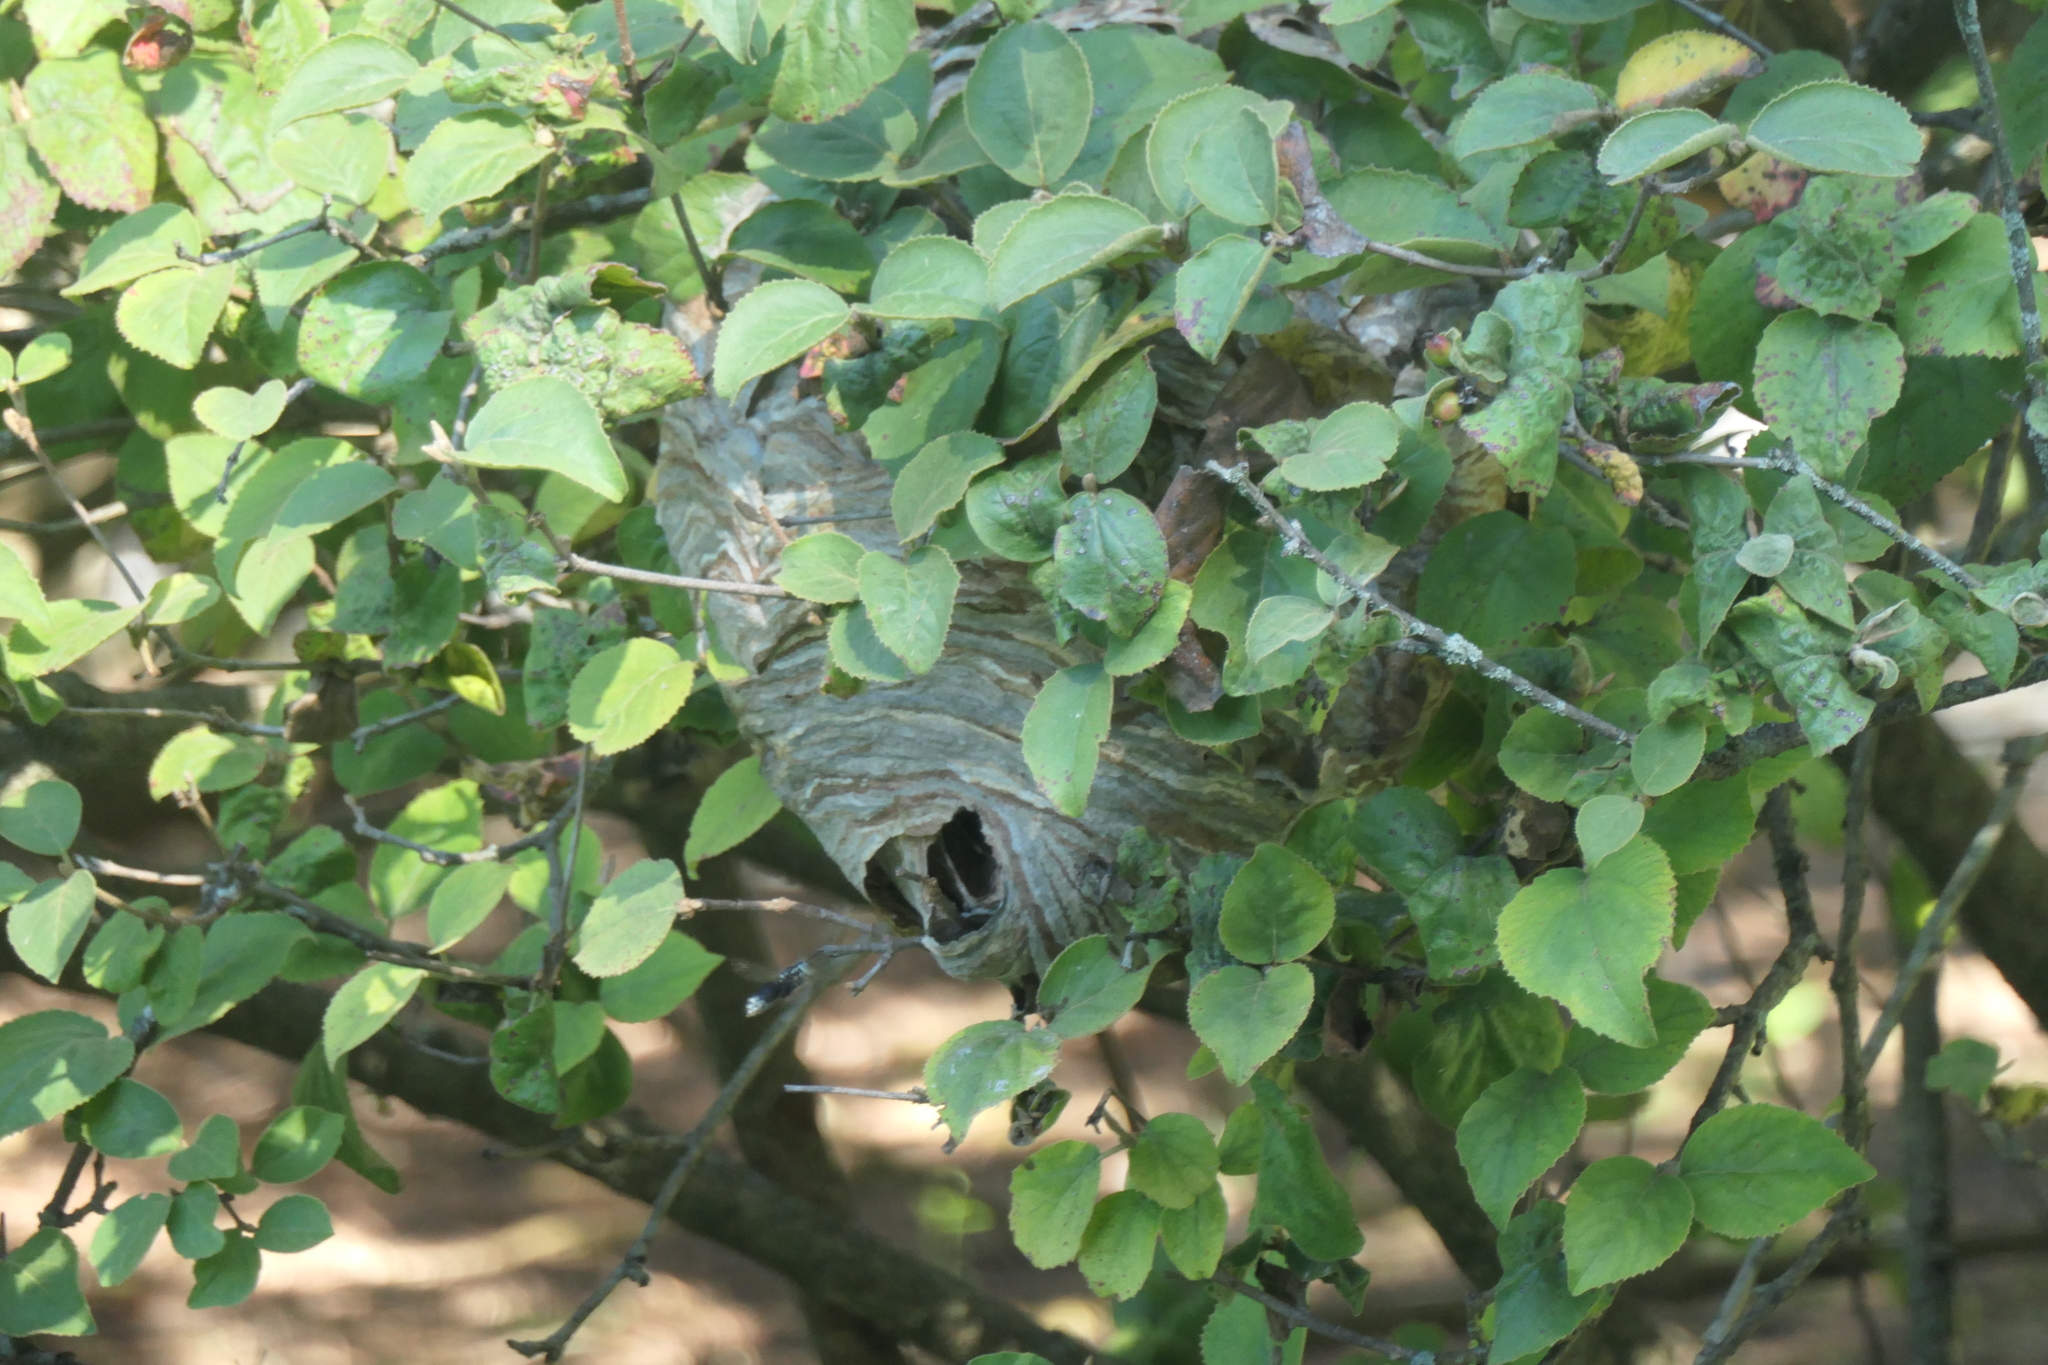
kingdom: Animalia
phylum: Arthropoda
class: Insecta
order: Hymenoptera
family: Vespidae
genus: Dolichovespula
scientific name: Dolichovespula maculata
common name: Bald-faced hornet
